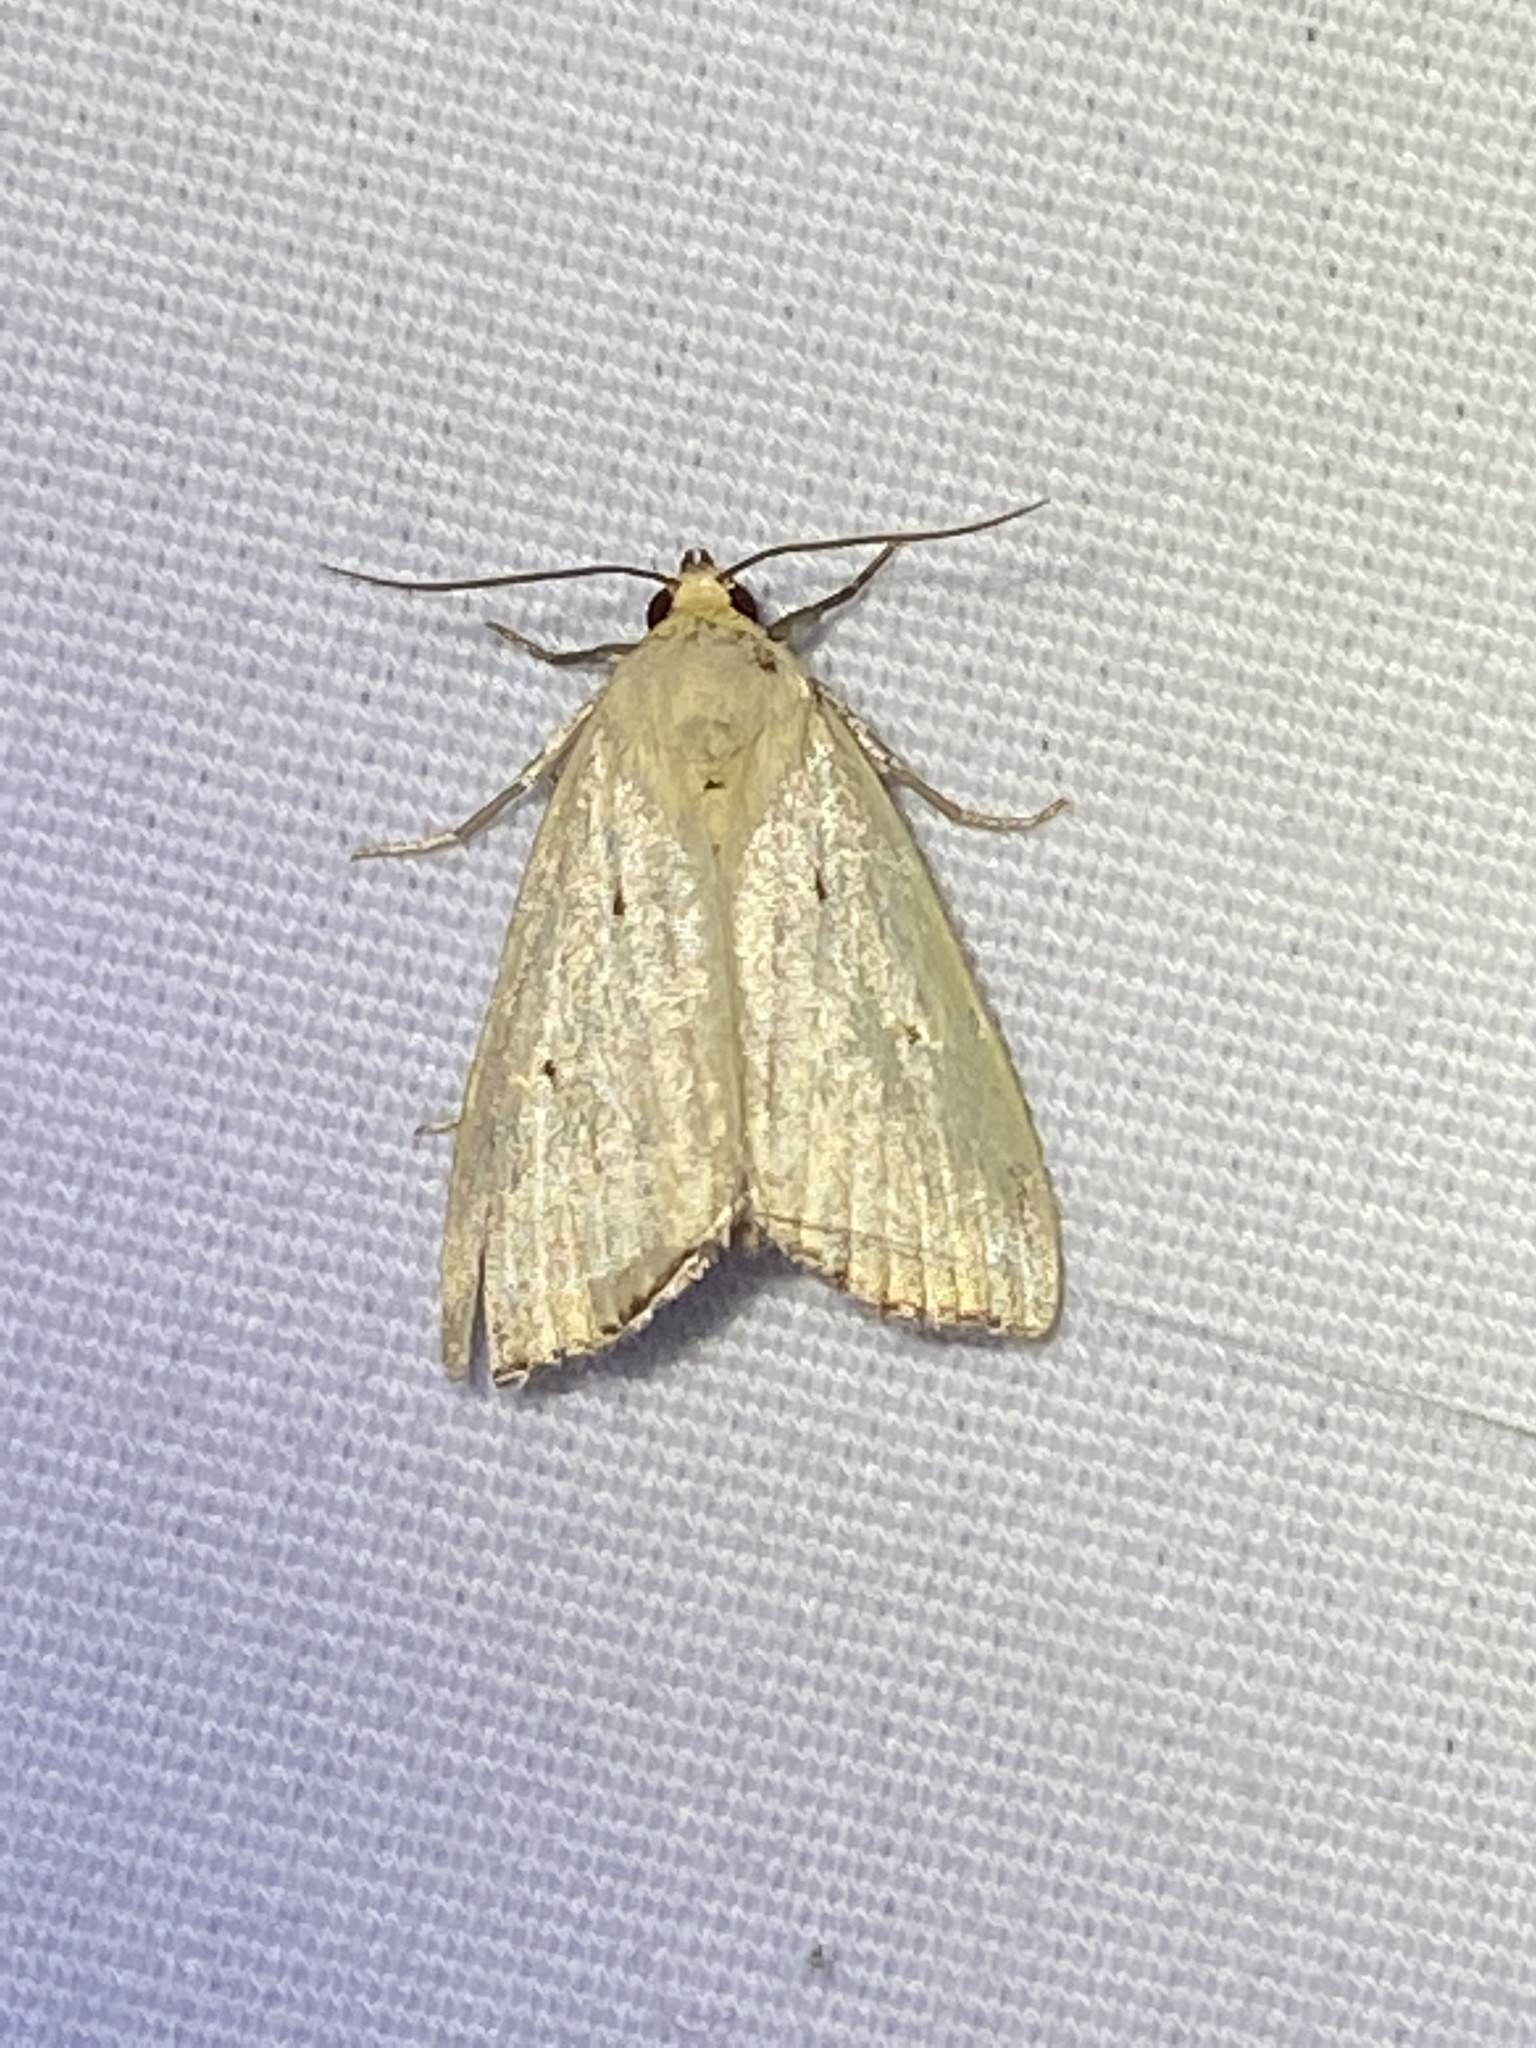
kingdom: Animalia
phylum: Arthropoda
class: Insecta
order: Lepidoptera
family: Noctuidae
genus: Marimatha
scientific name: Marimatha nigrofimbria
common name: Black-bordered lemon moth
